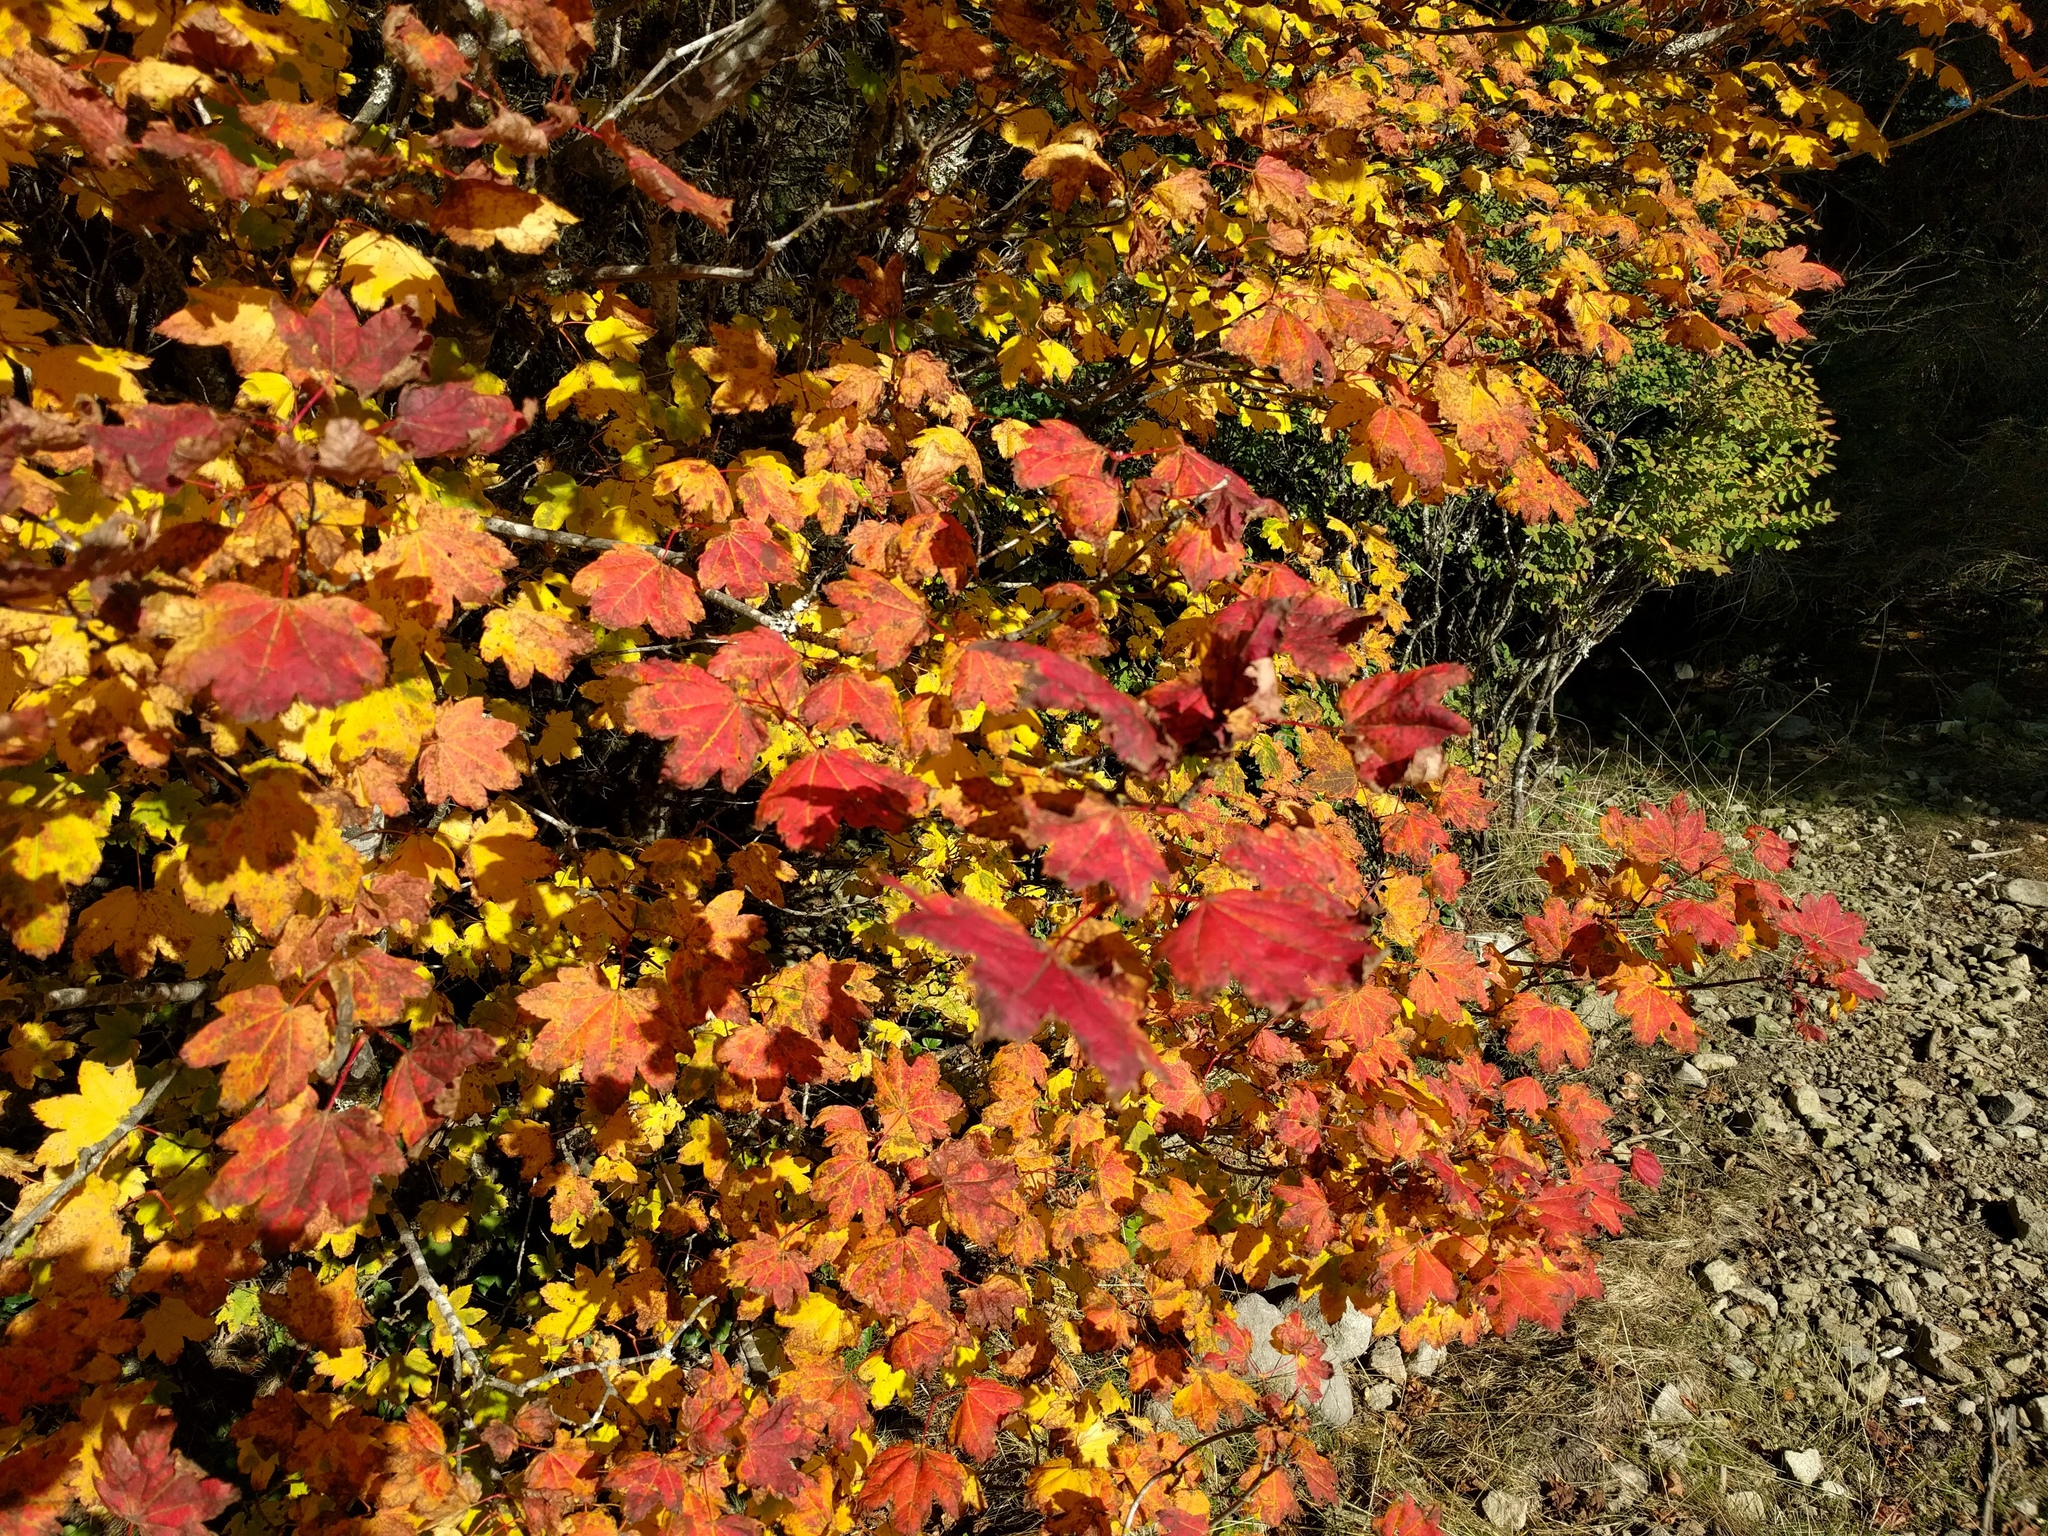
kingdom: Plantae
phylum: Tracheophyta
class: Magnoliopsida
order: Sapindales
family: Sapindaceae
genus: Acer
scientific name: Acer circinatum
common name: Vine maple
